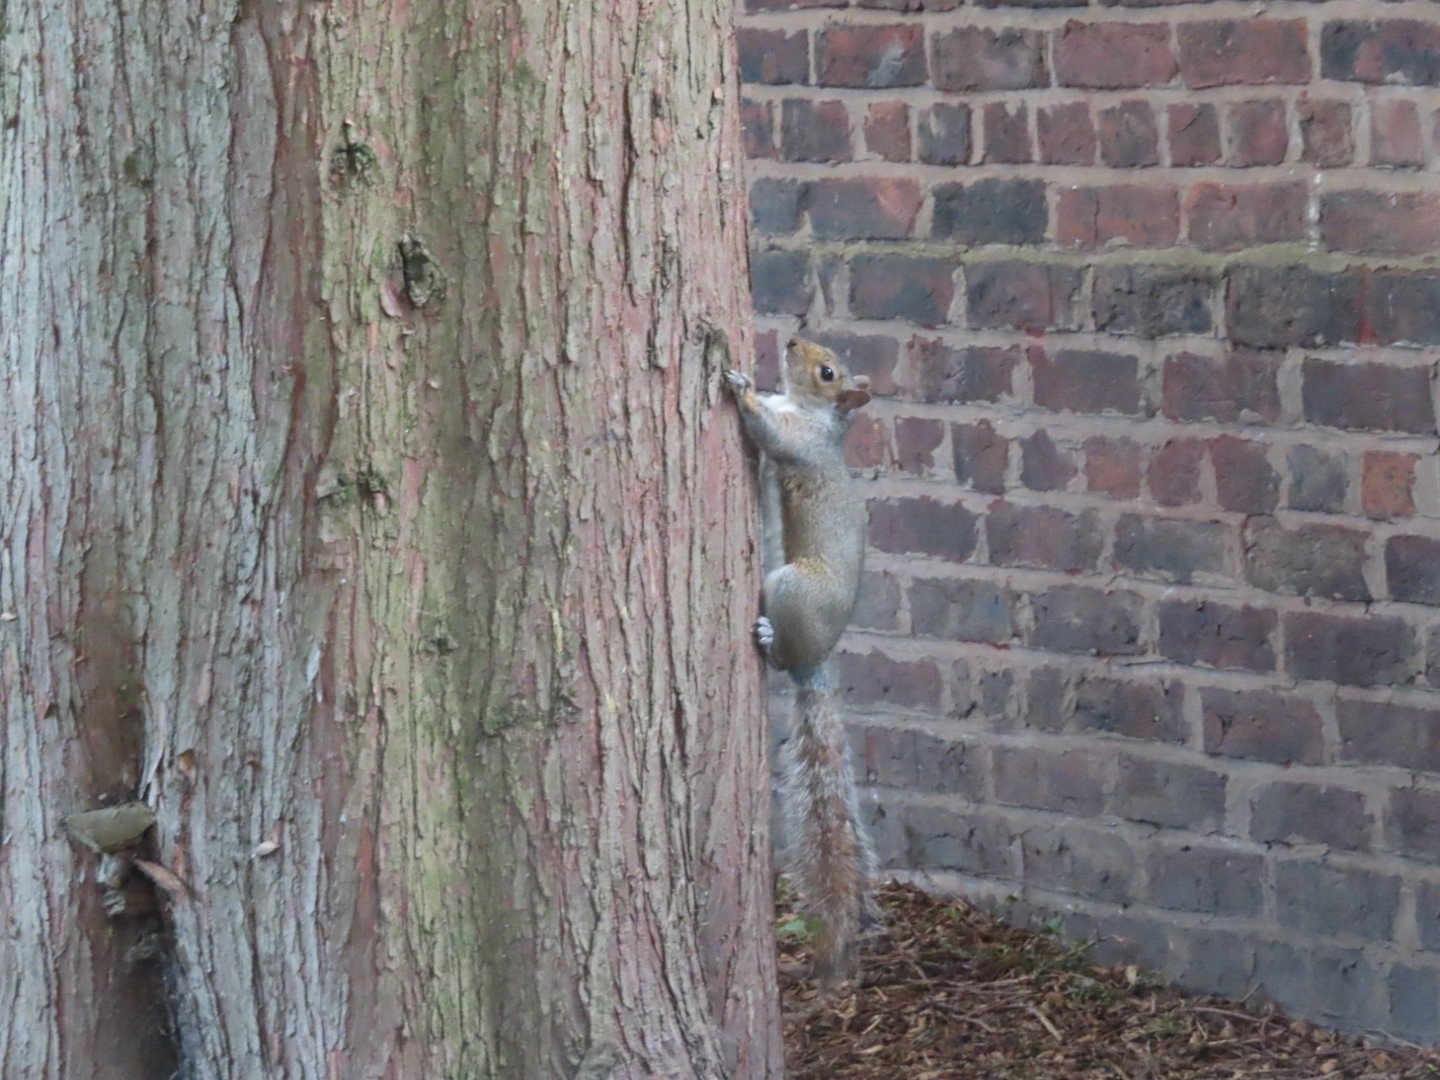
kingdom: Animalia
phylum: Chordata
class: Mammalia
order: Rodentia
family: Sciuridae
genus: Sciurus
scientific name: Sciurus carolinensis
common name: Eastern gray squirrel
